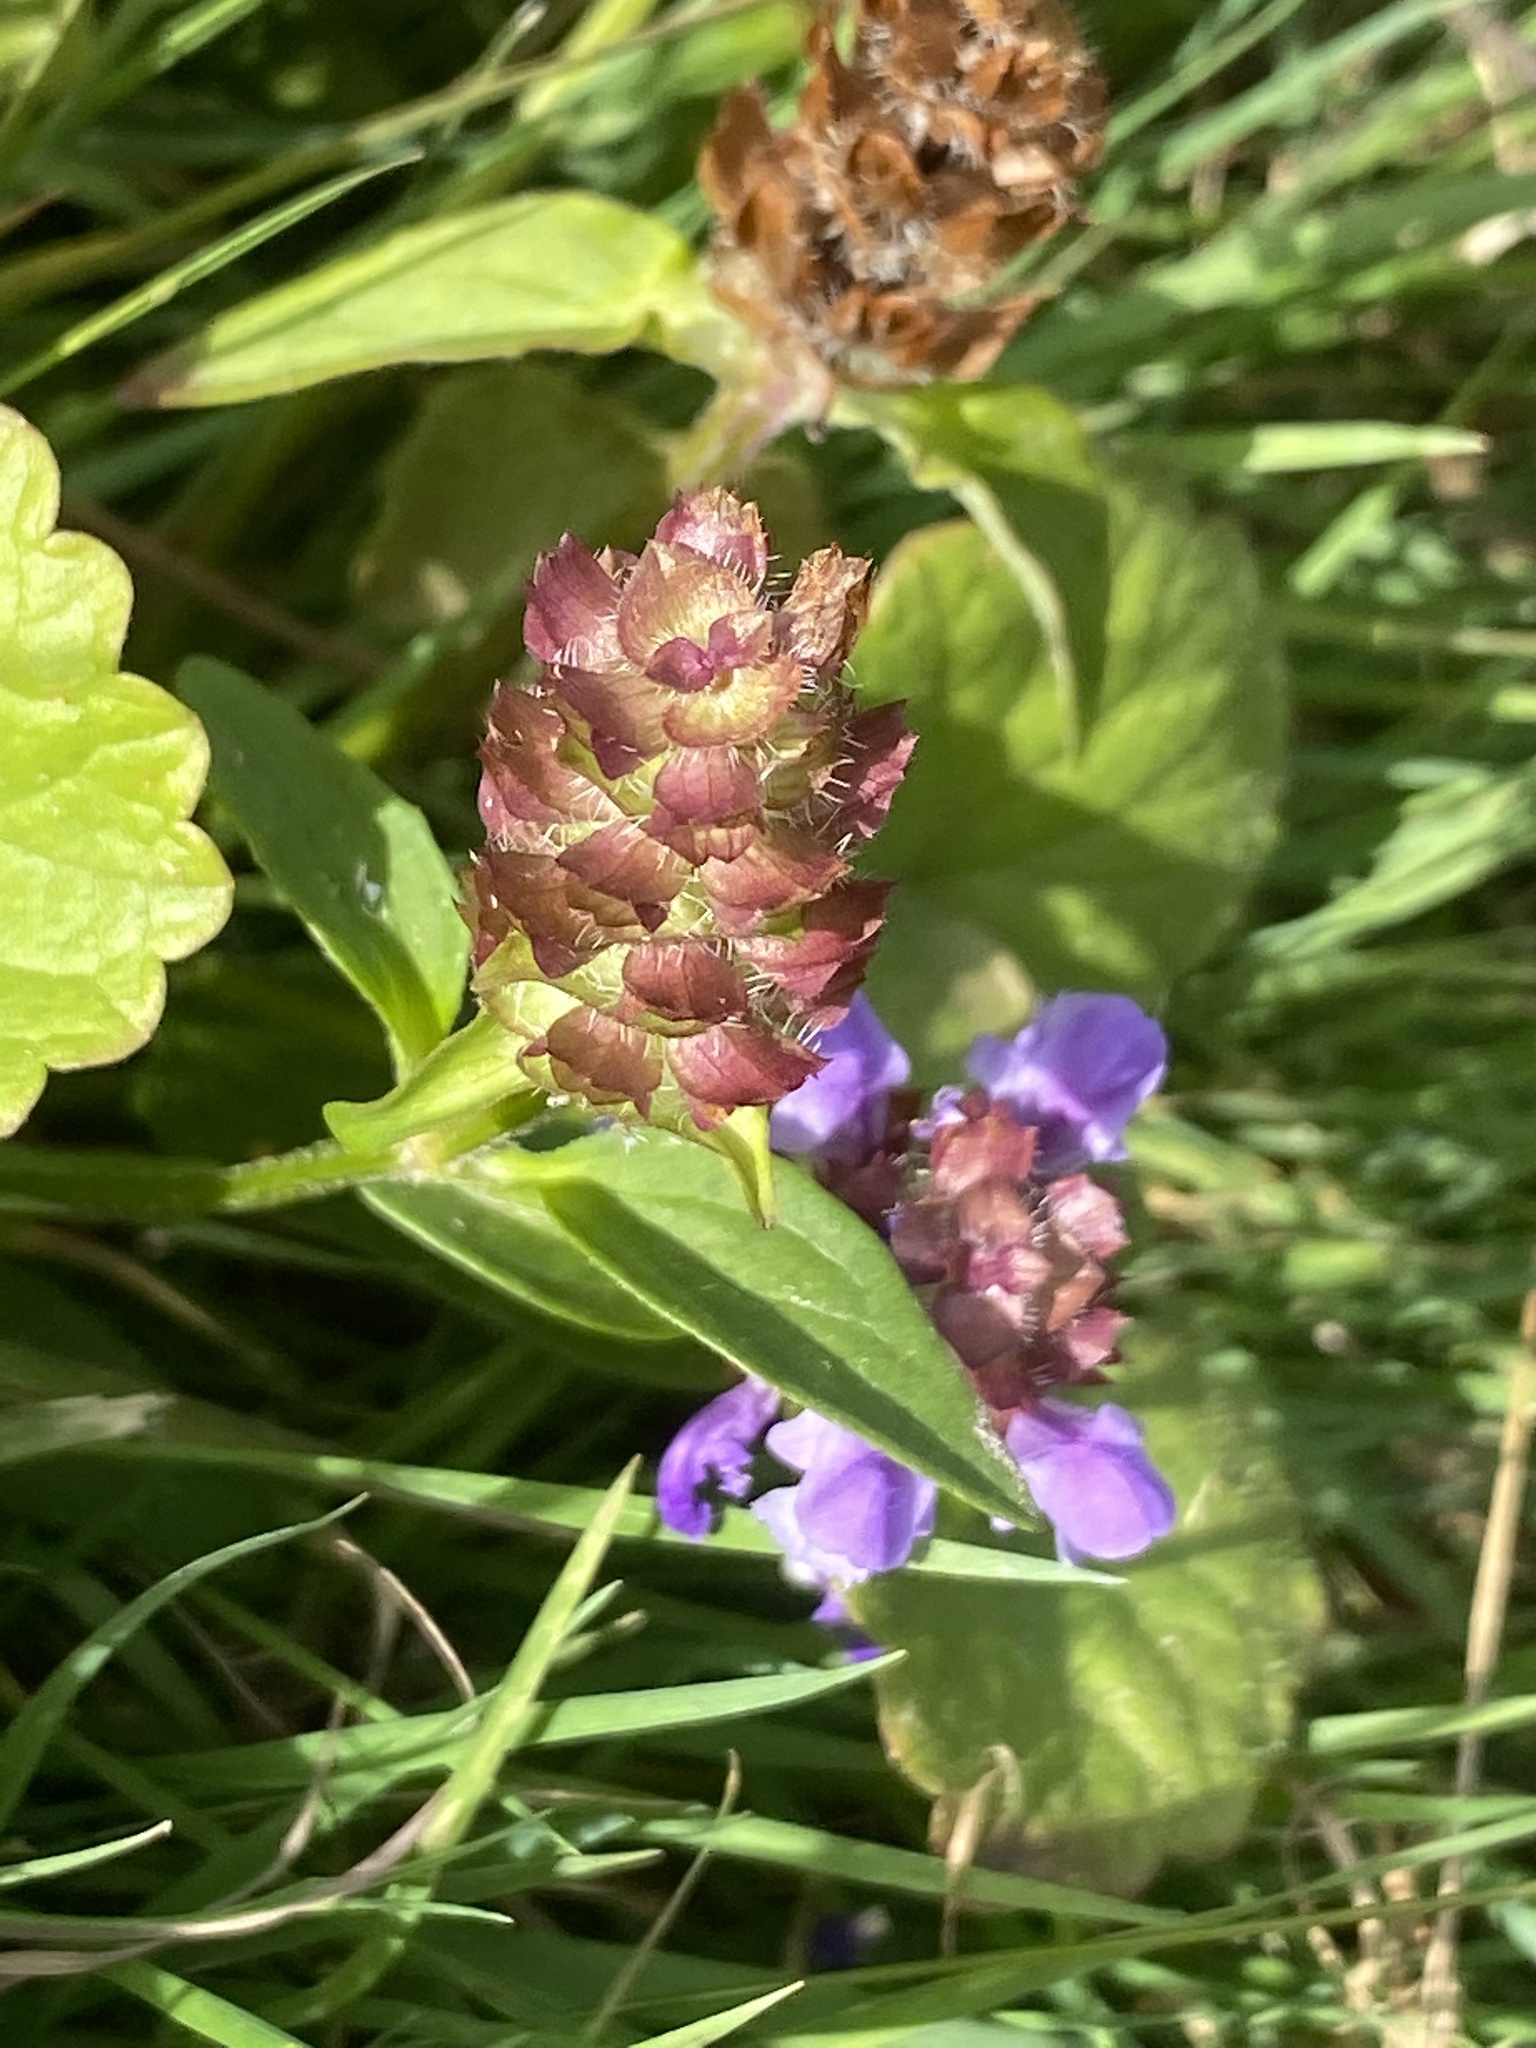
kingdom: Plantae
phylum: Tracheophyta
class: Magnoliopsida
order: Lamiales
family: Lamiaceae
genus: Prunella
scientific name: Prunella vulgaris
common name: Heal-all
